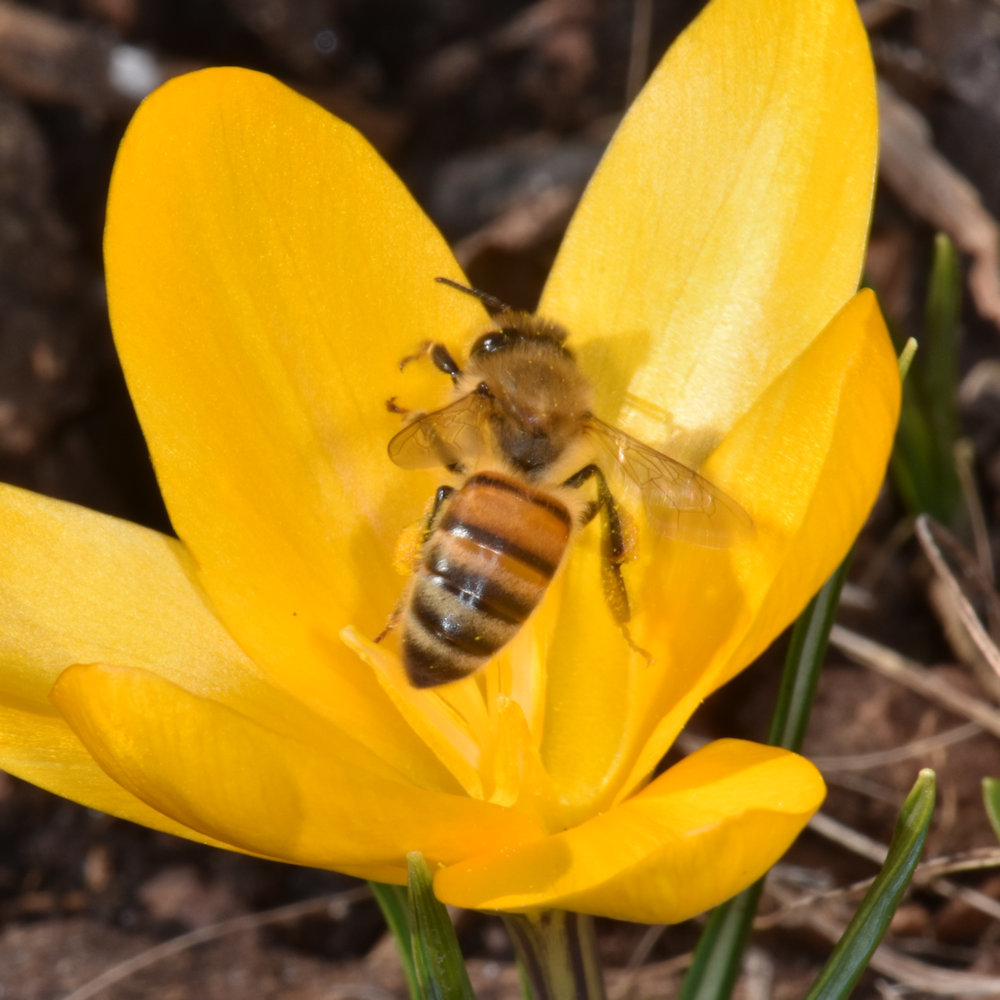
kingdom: Animalia
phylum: Arthropoda
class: Insecta
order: Hymenoptera
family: Apidae
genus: Apis
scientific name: Apis mellifera
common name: Honey bee
